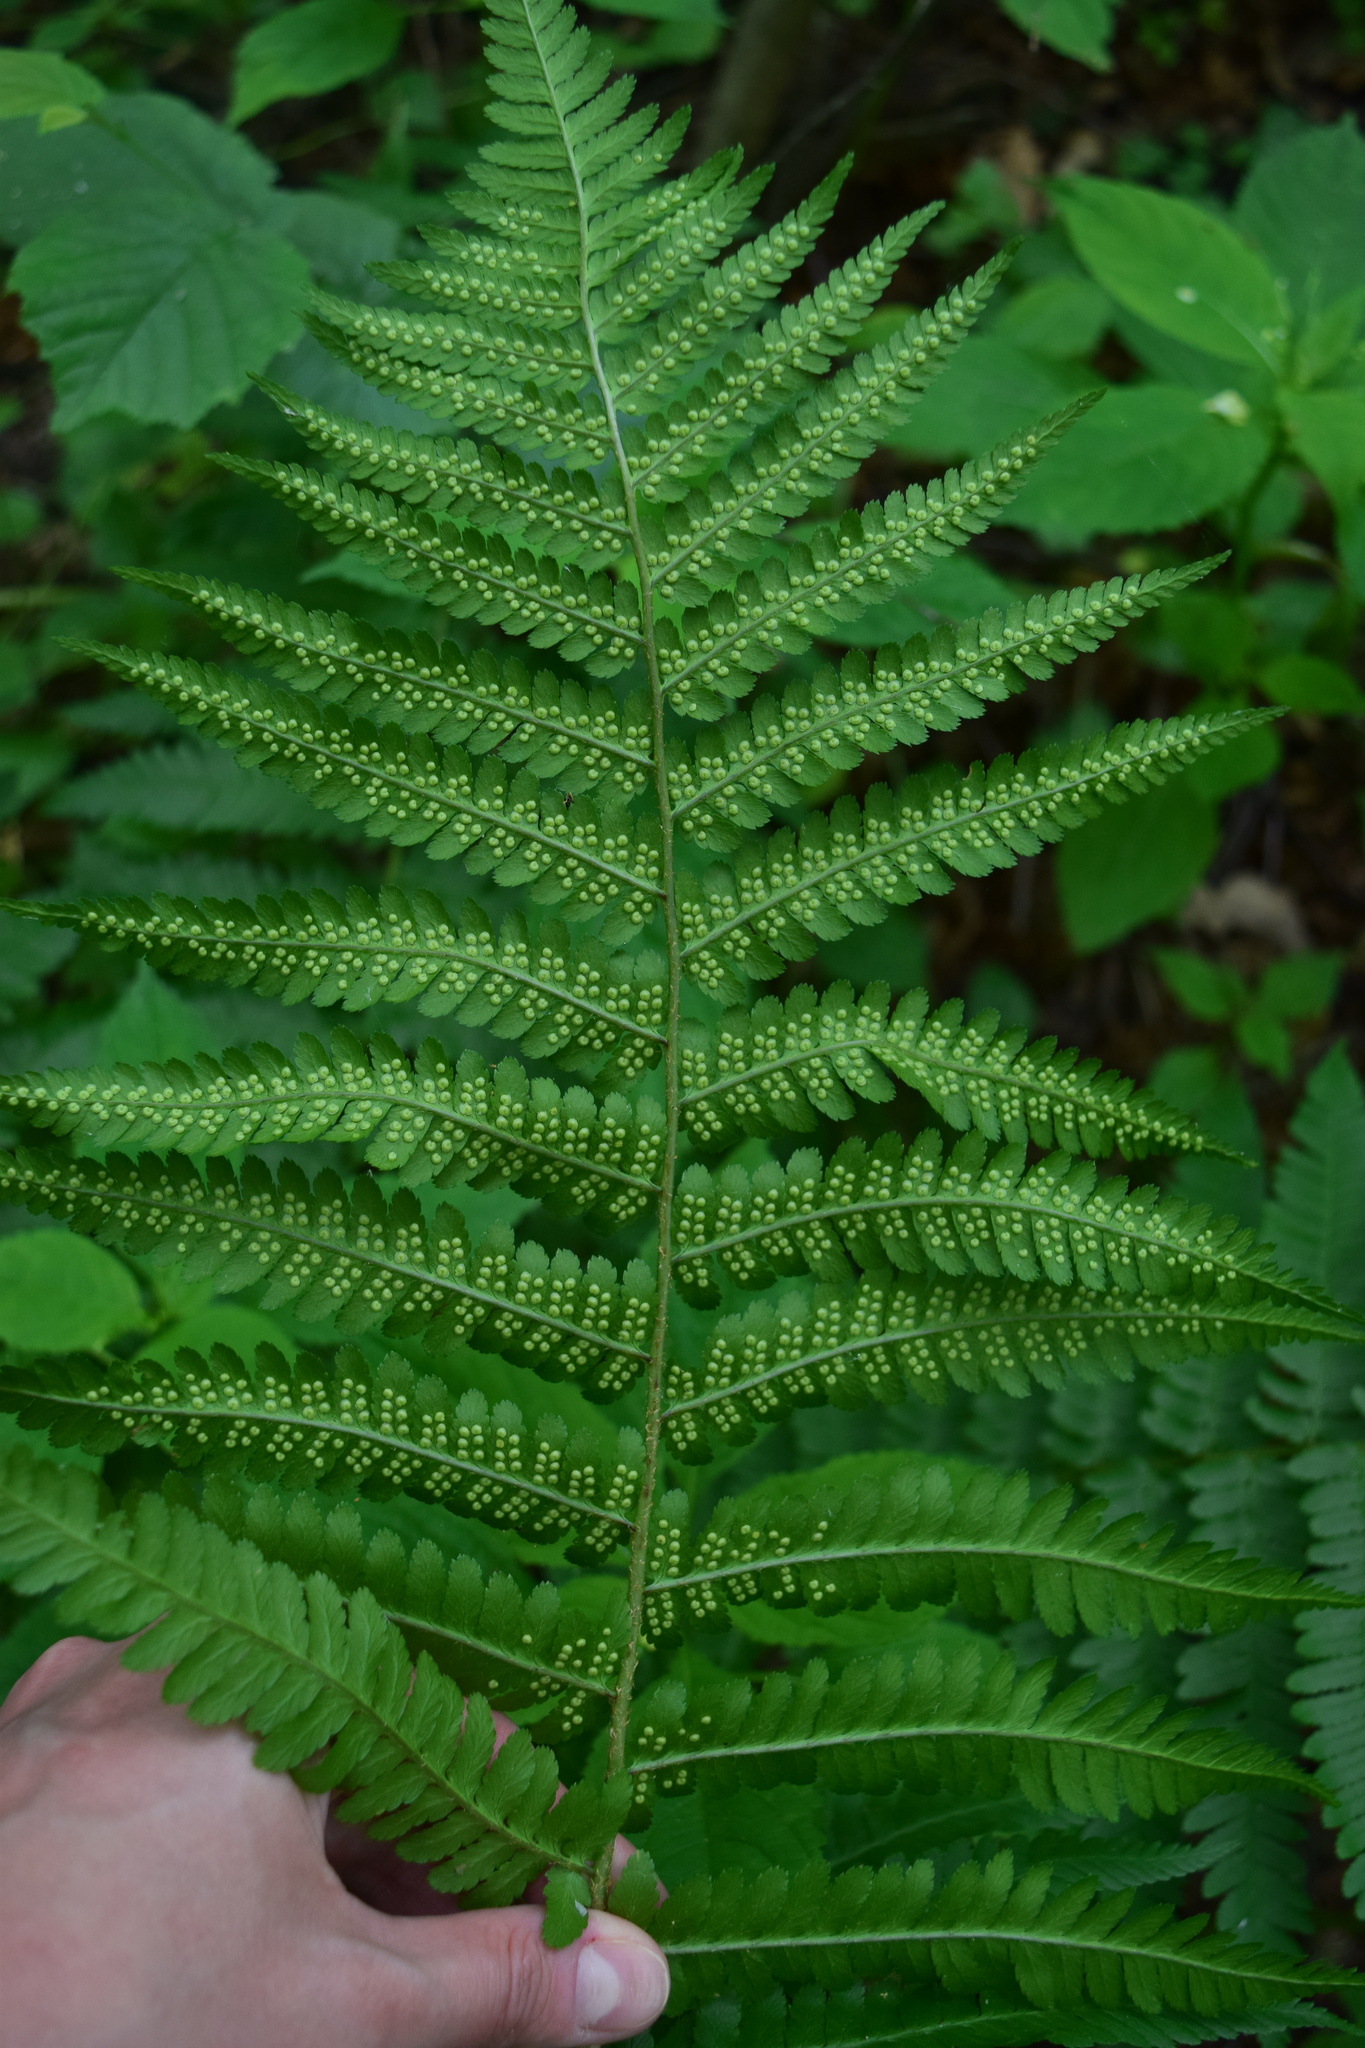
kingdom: Plantae
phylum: Tracheophyta
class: Polypodiopsida
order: Polypodiales
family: Dryopteridaceae
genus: Dryopteris
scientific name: Dryopteris filix-mas
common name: Male fern
